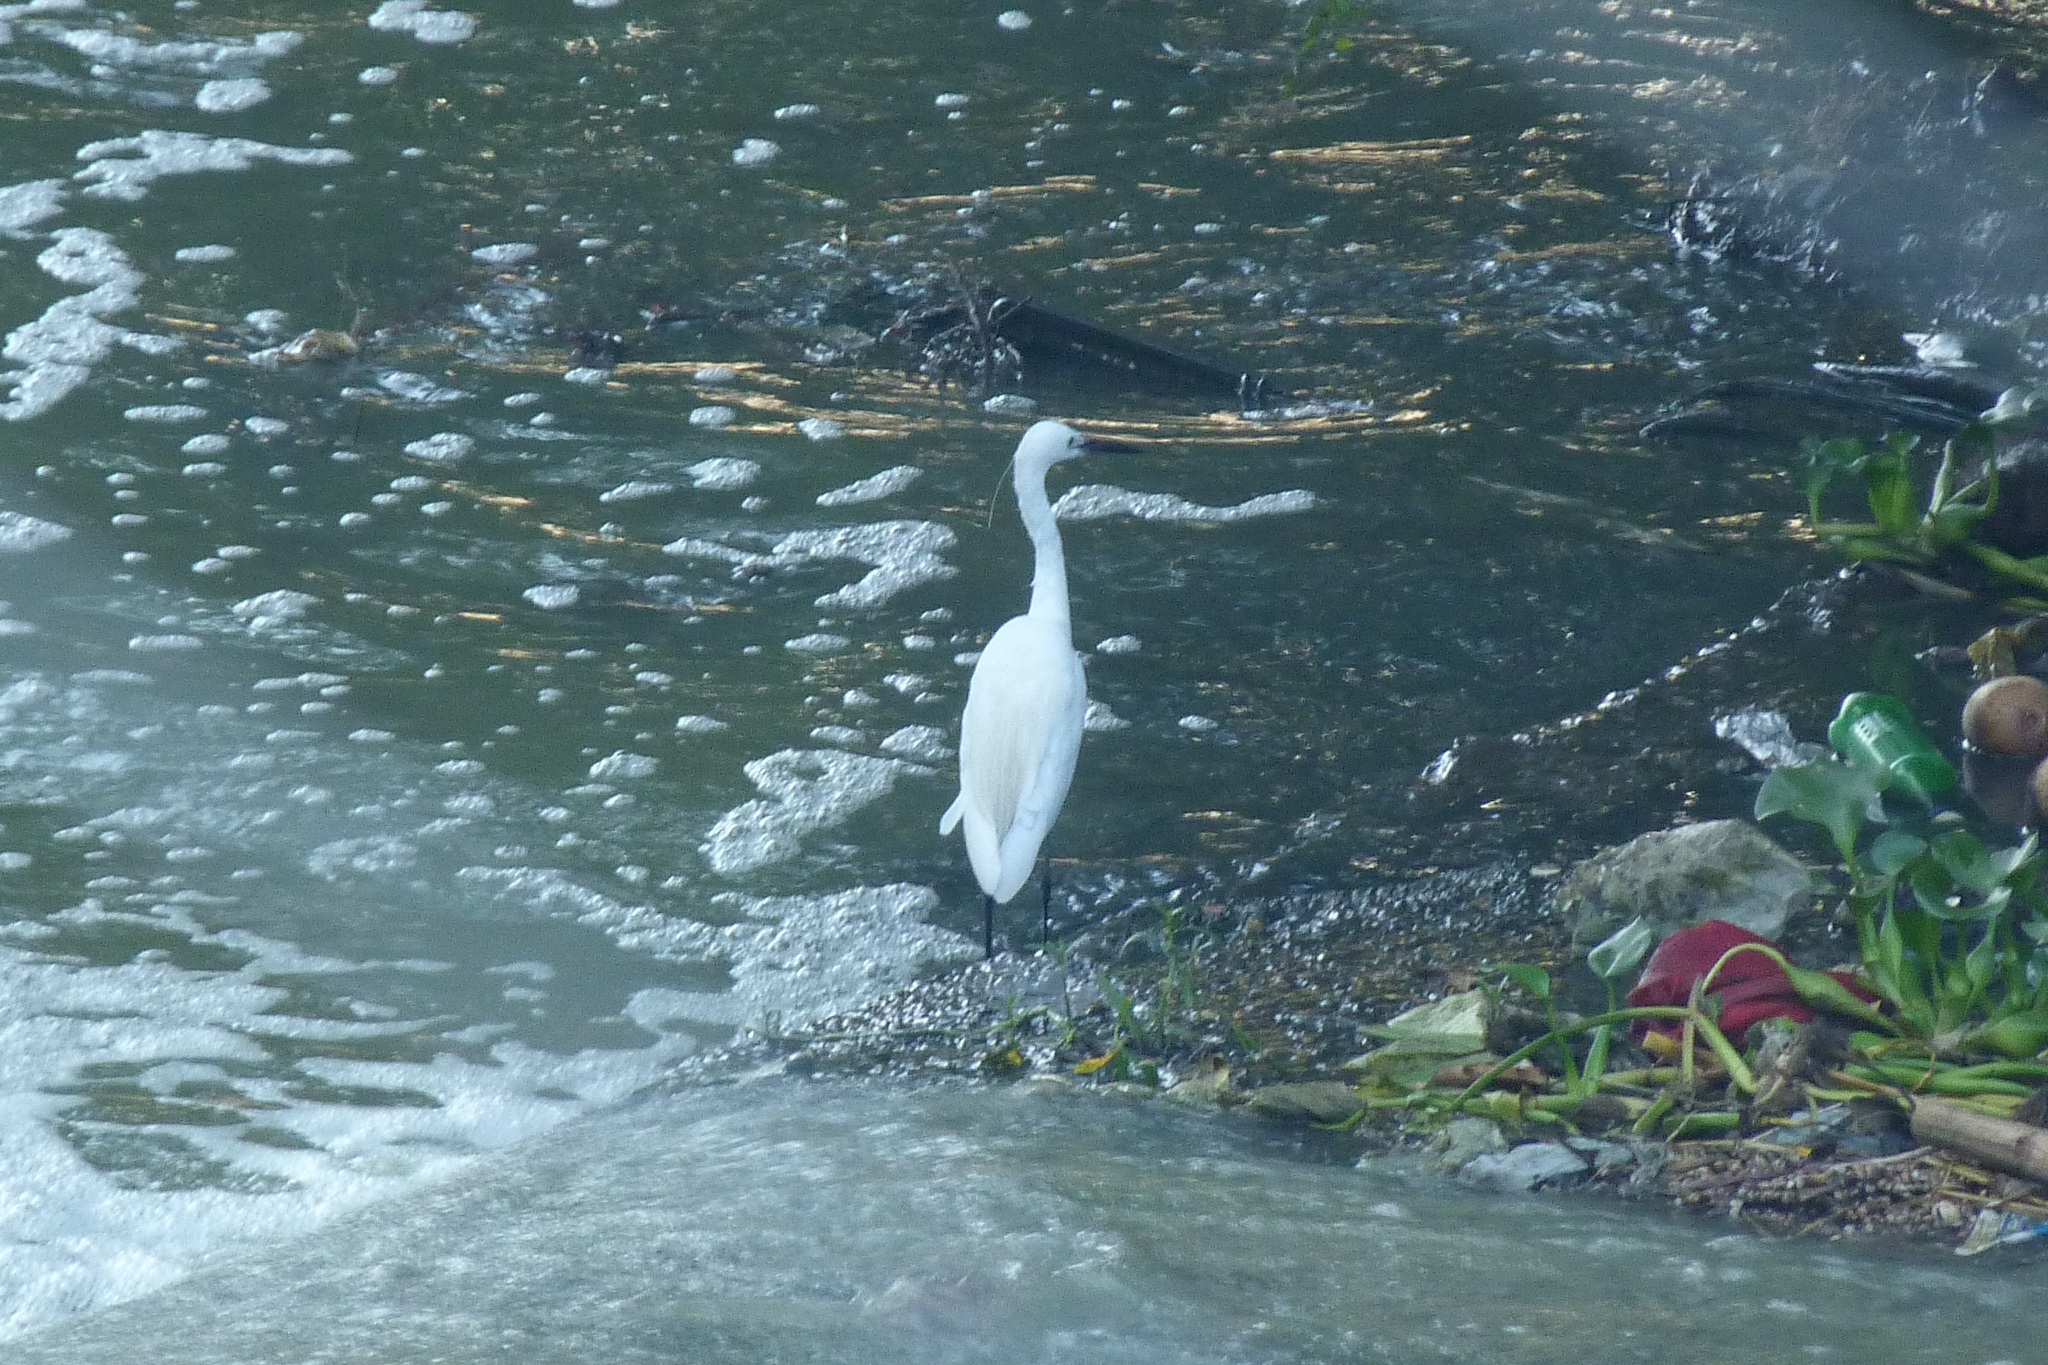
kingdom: Animalia
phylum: Chordata
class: Aves
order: Pelecaniformes
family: Ardeidae
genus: Egretta
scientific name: Egretta garzetta
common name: Little egret
